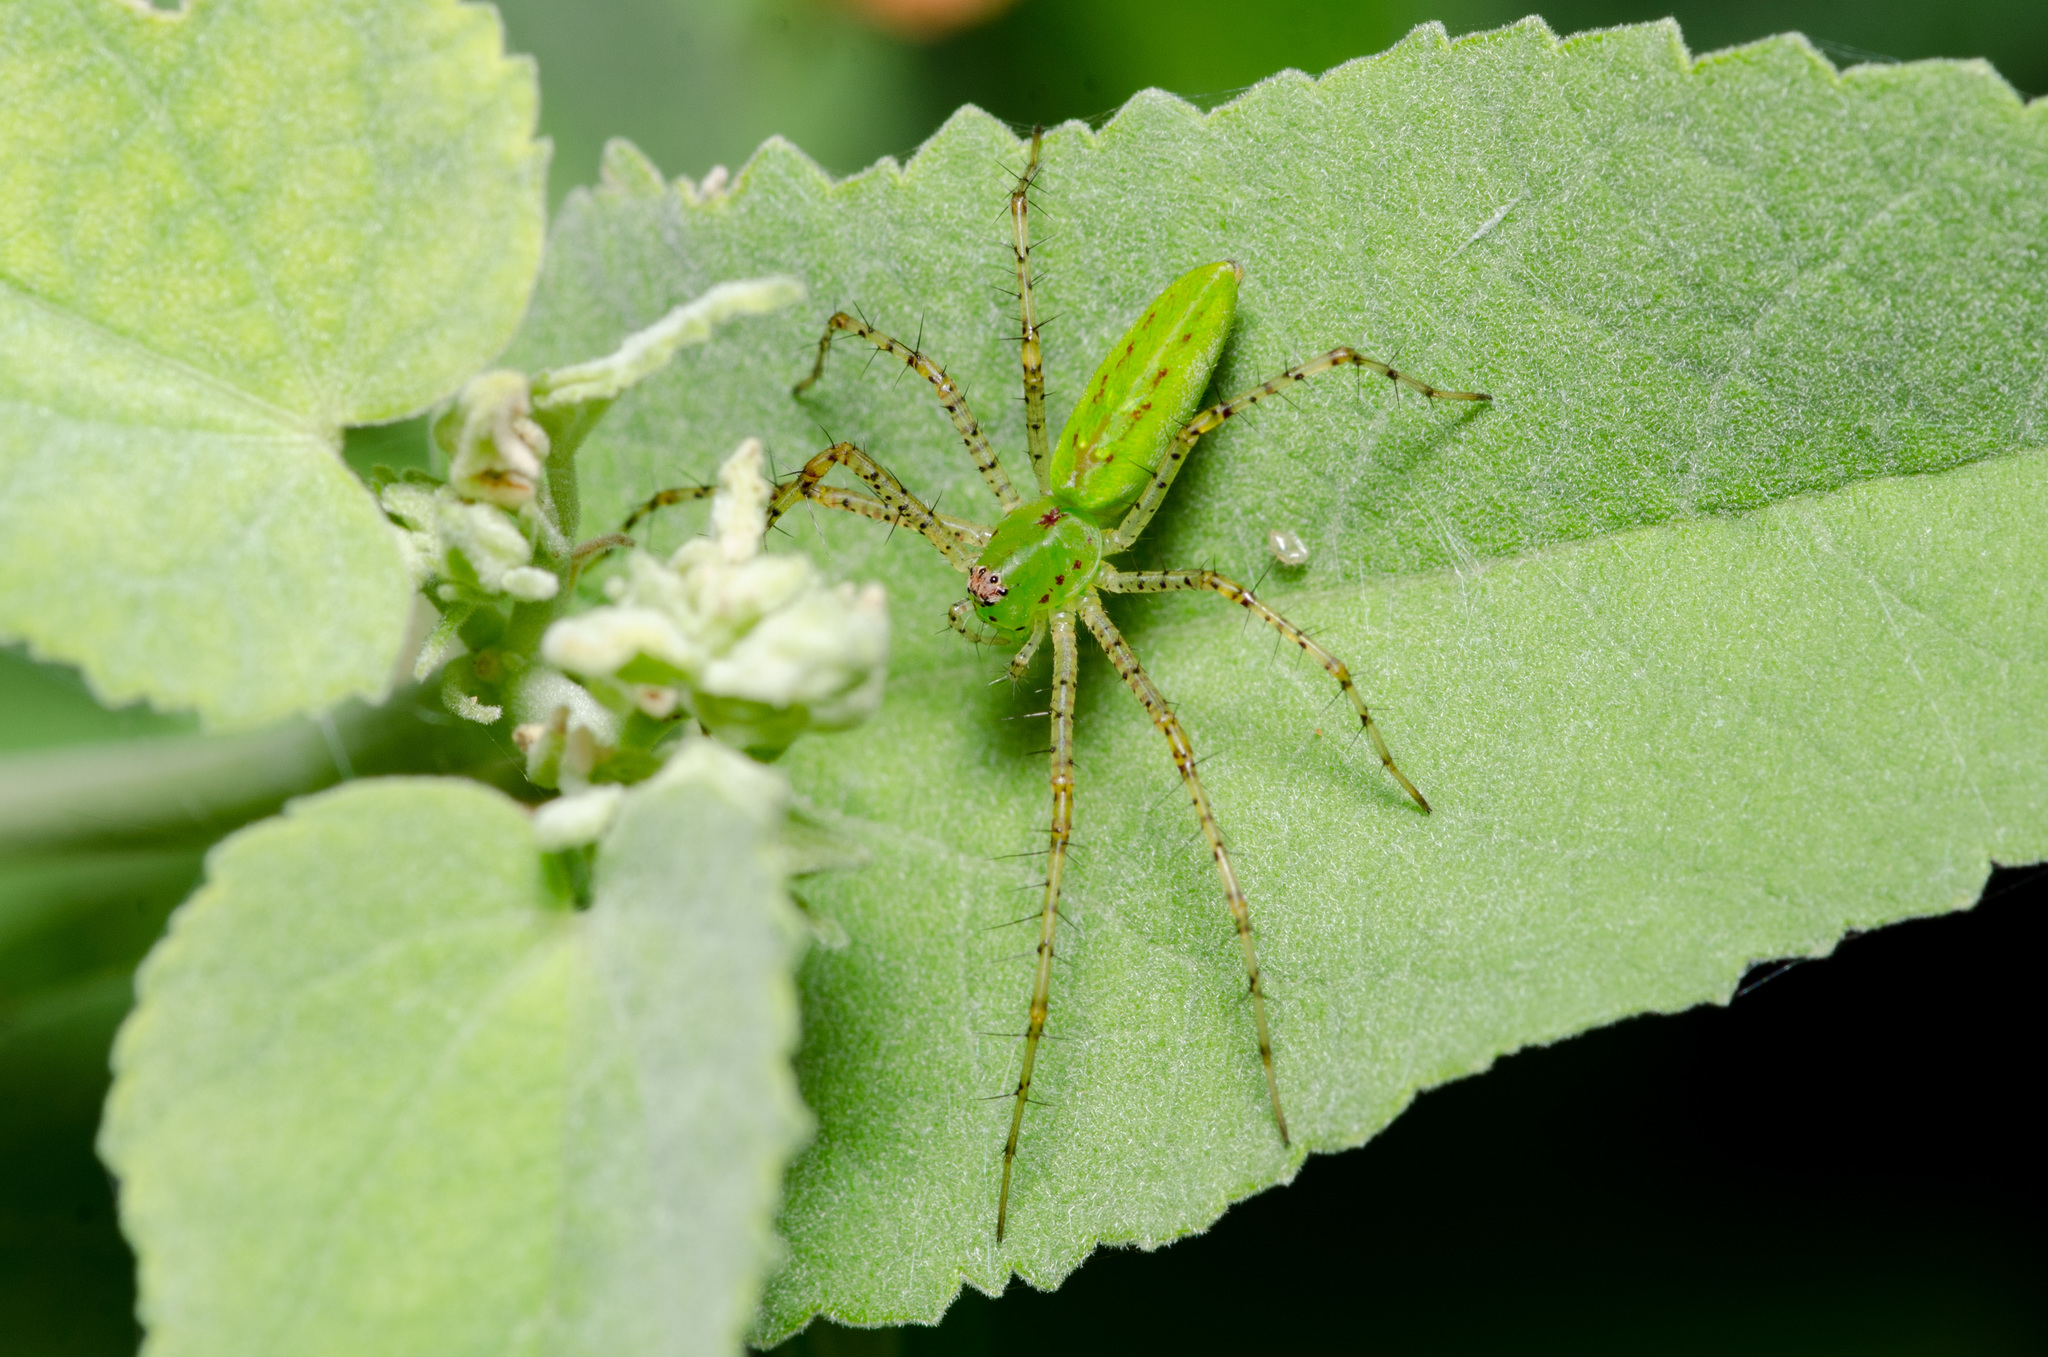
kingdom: Animalia
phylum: Arthropoda
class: Arachnida
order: Araneae
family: Oxyopidae
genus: Peucetia
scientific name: Peucetia viridans
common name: Lynx spiders
